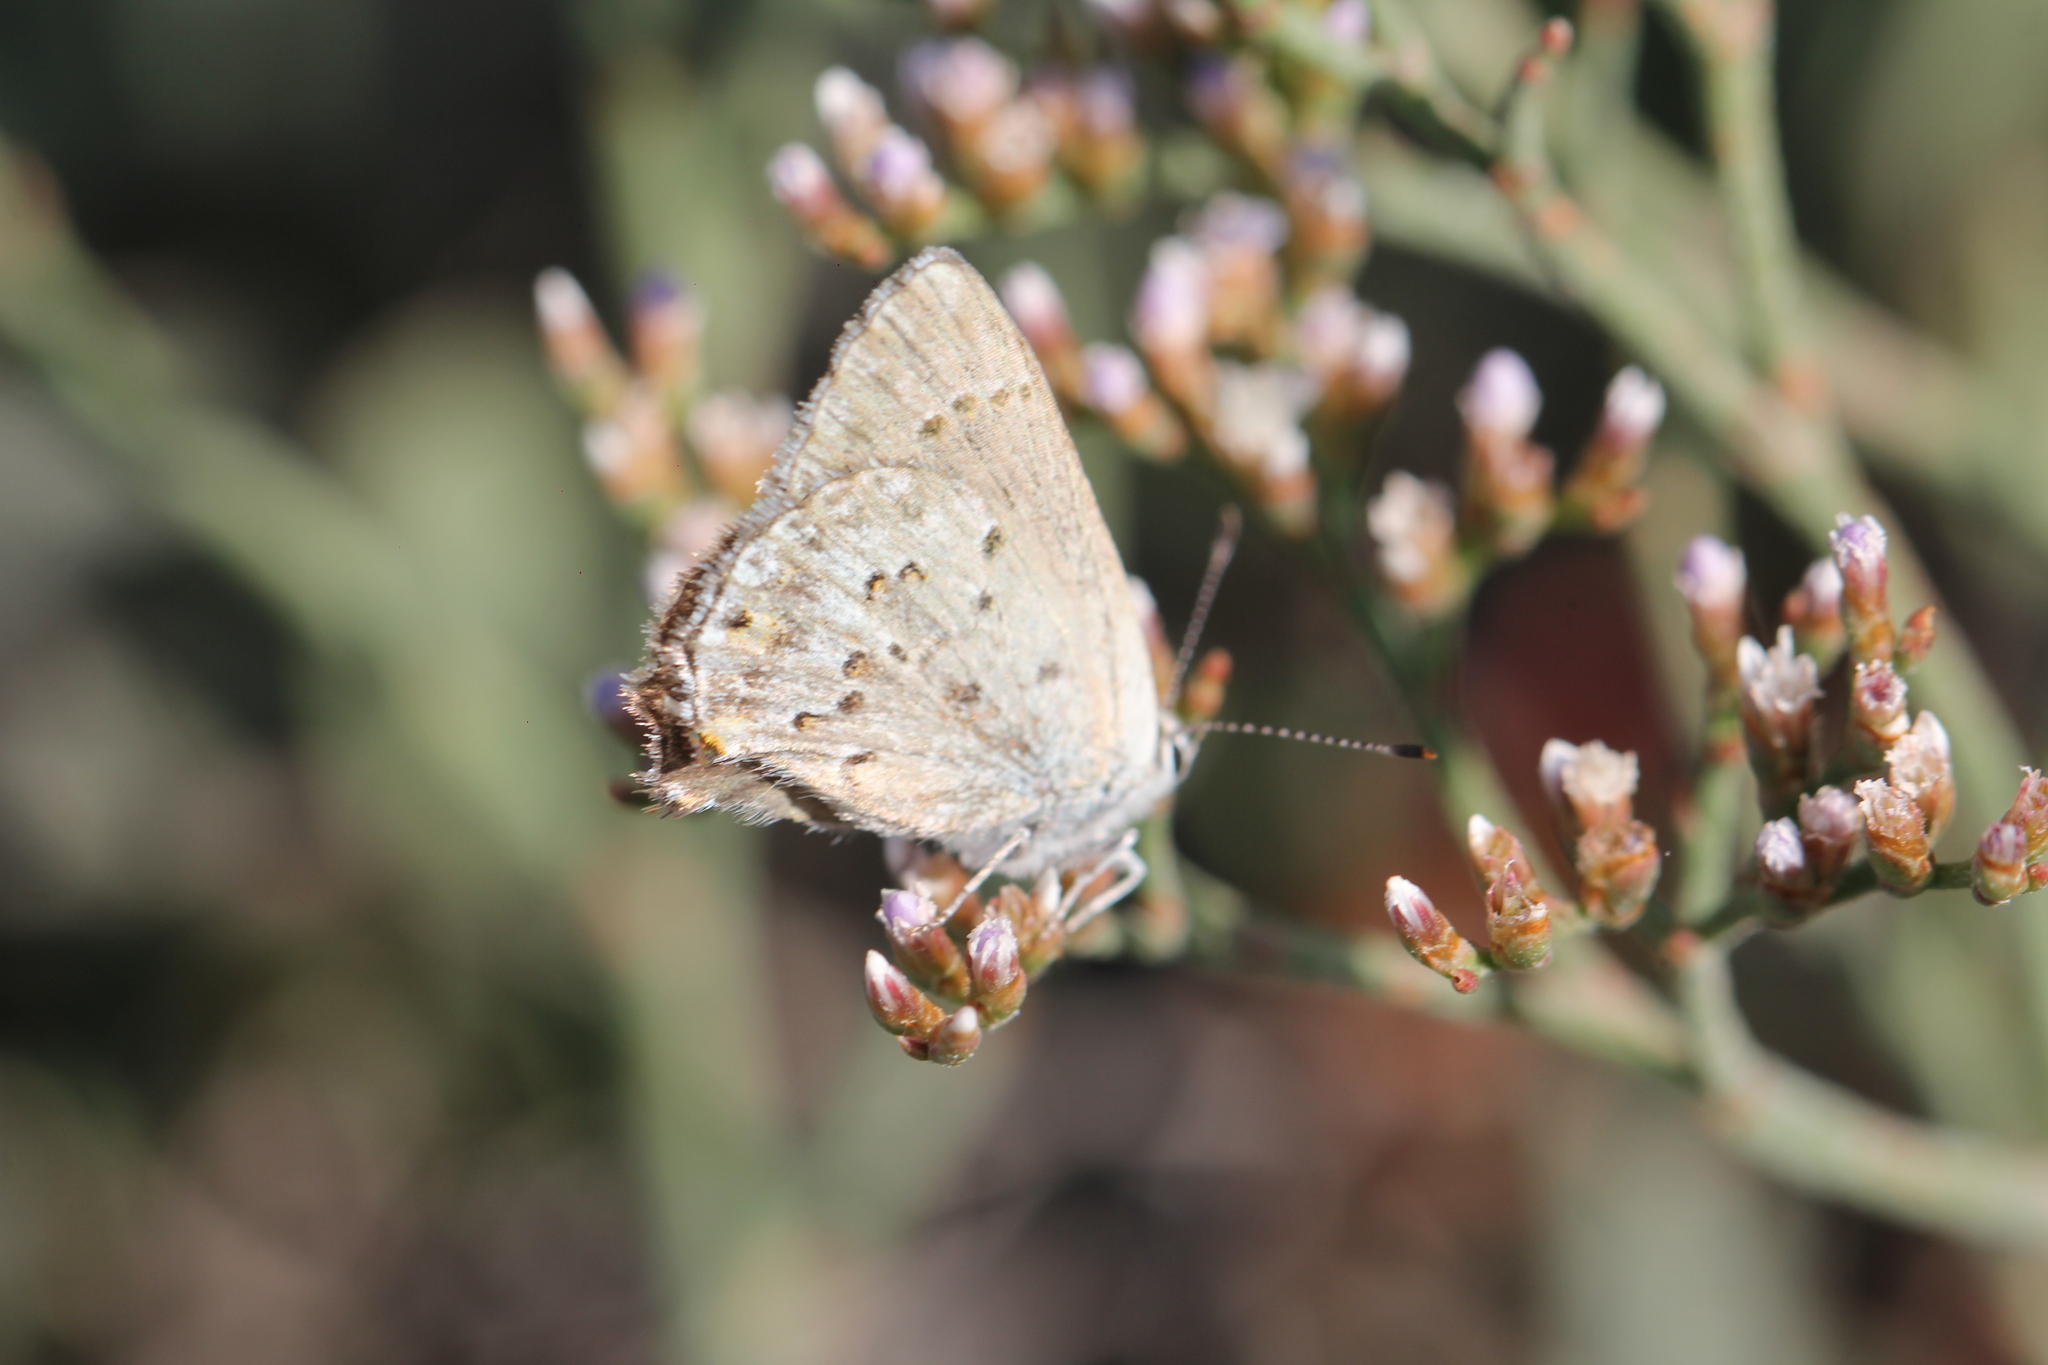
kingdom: Animalia
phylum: Arthropoda
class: Insecta
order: Lepidoptera
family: Lycaenidae
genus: Strymon
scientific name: Strymon eurytulus
